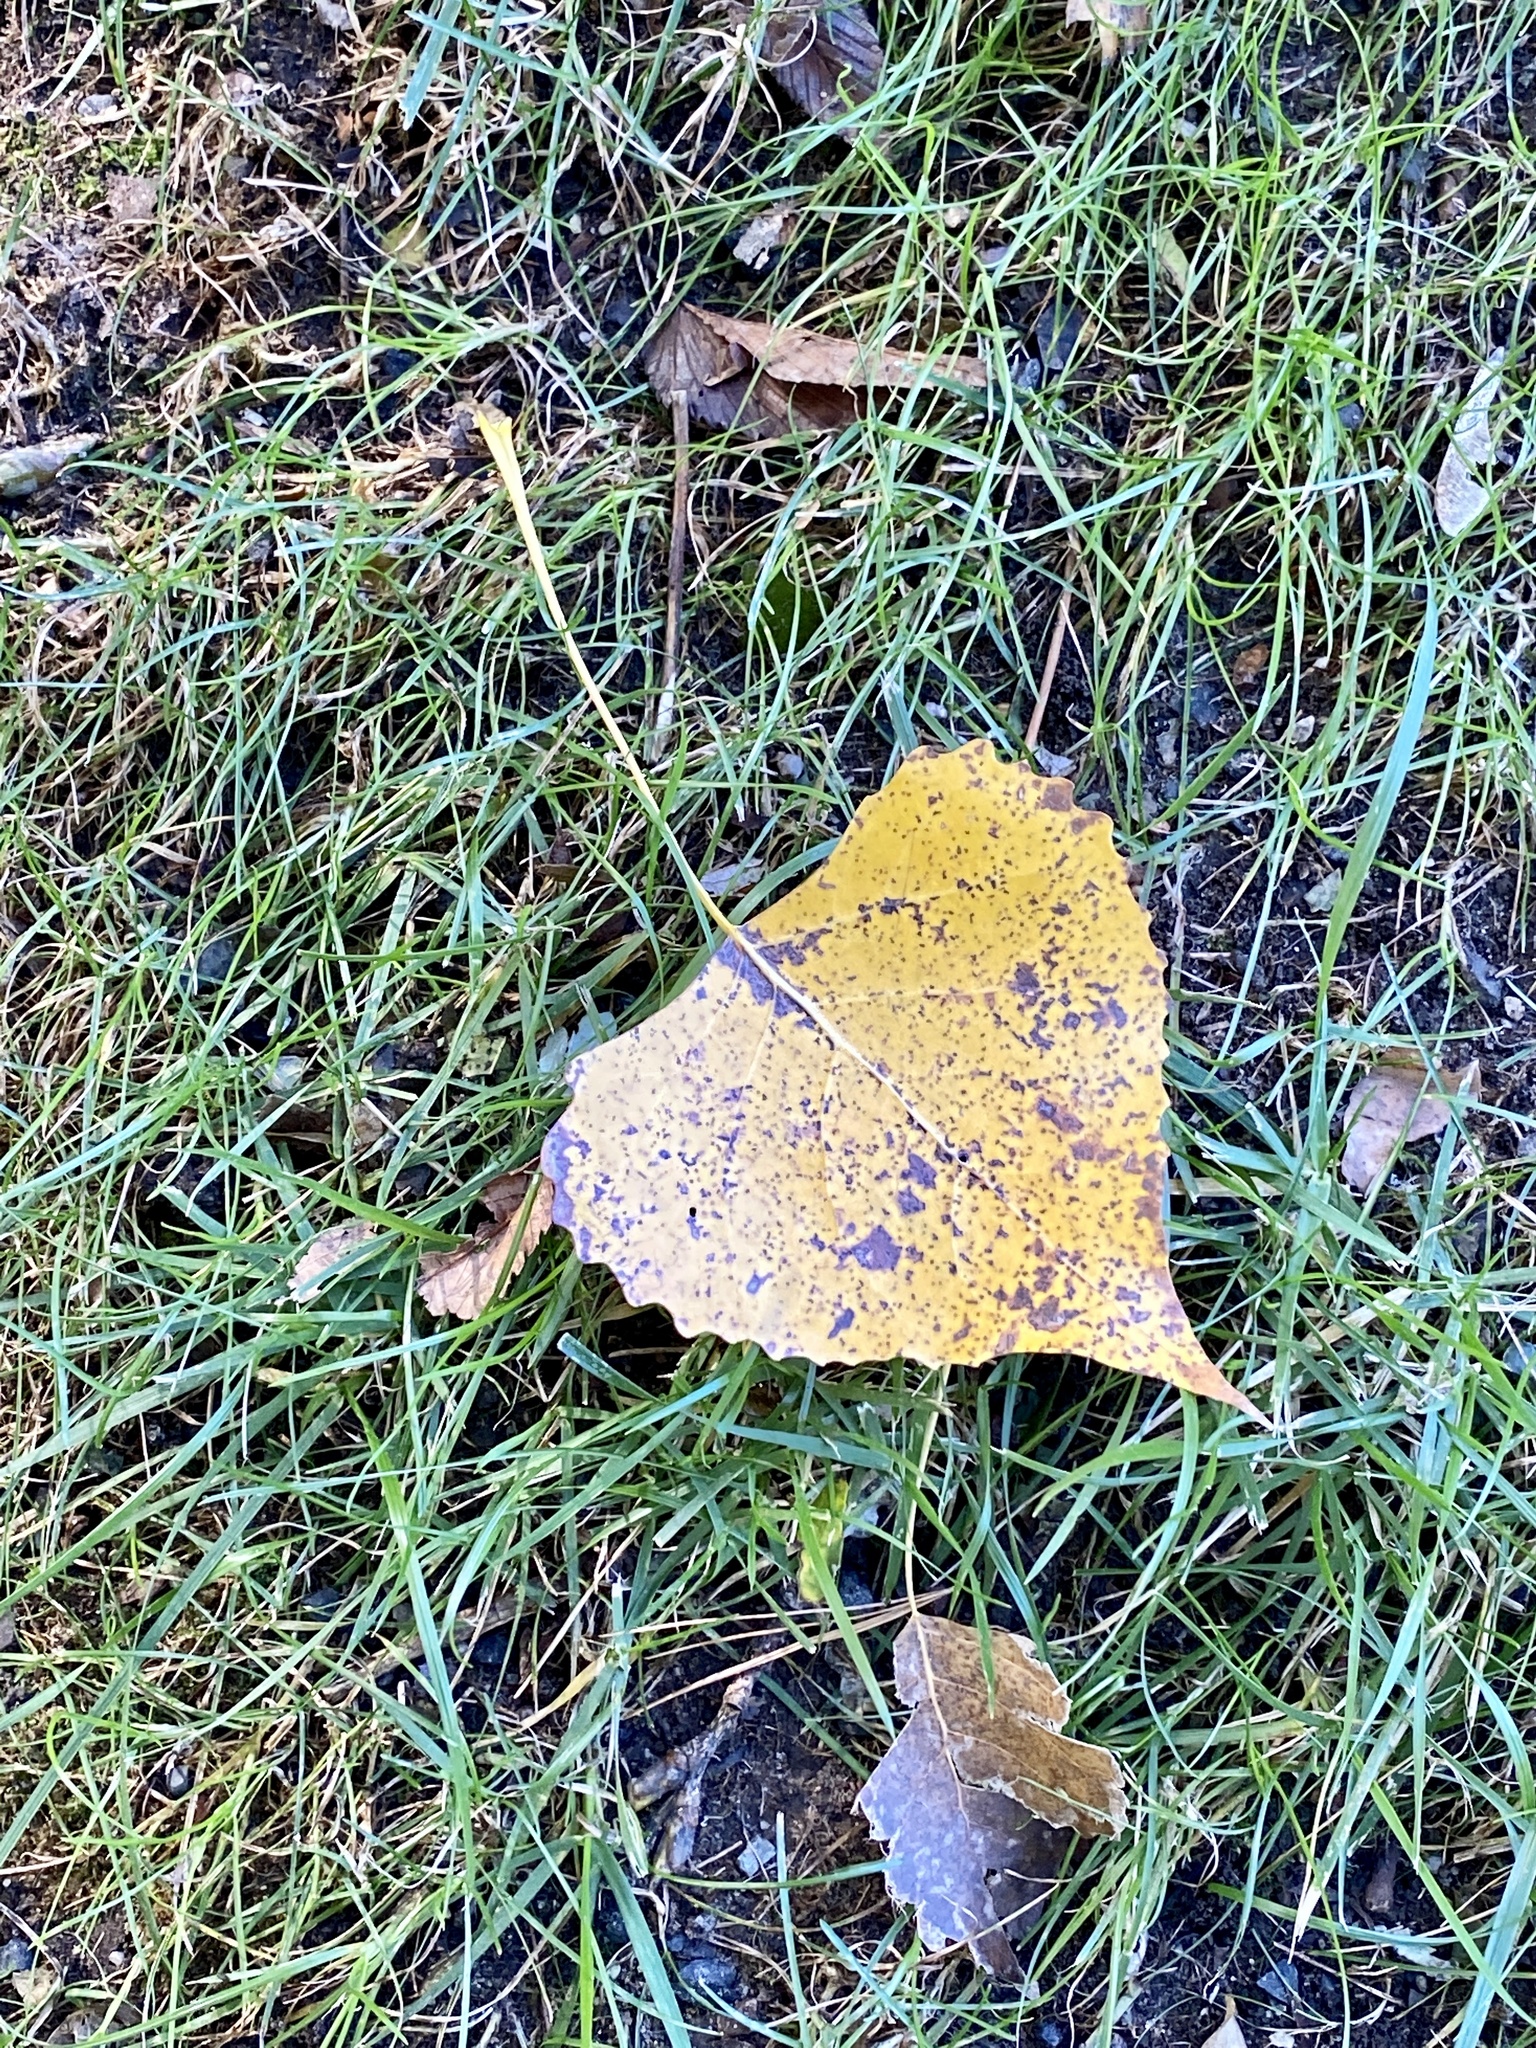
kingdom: Plantae
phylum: Tracheophyta
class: Magnoliopsida
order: Malpighiales
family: Salicaceae
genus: Populus
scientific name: Populus deltoides
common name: Eastern cottonwood
